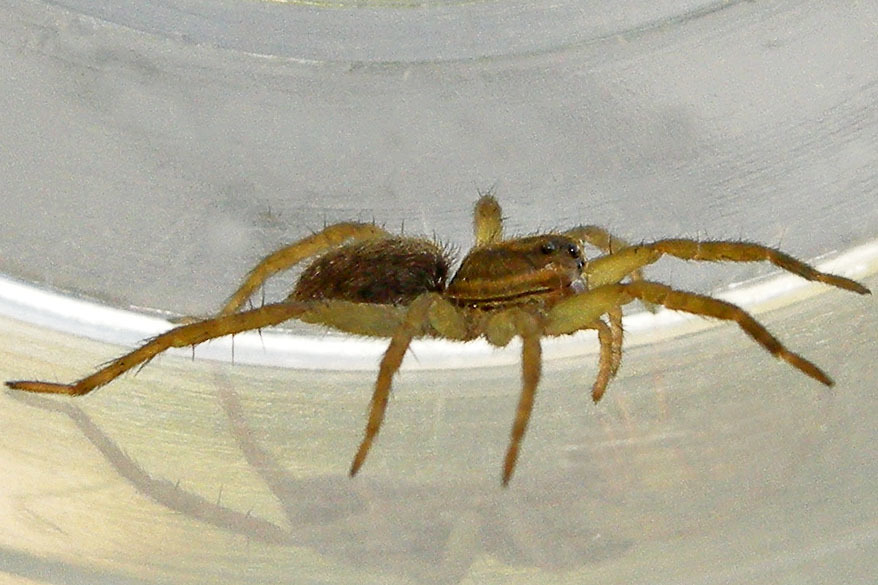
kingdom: Animalia
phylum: Arthropoda
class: Arachnida
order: Araneae
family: Lycosidae
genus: Tigrosa
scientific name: Tigrosa helluo
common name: Wetland giant wolf spider
